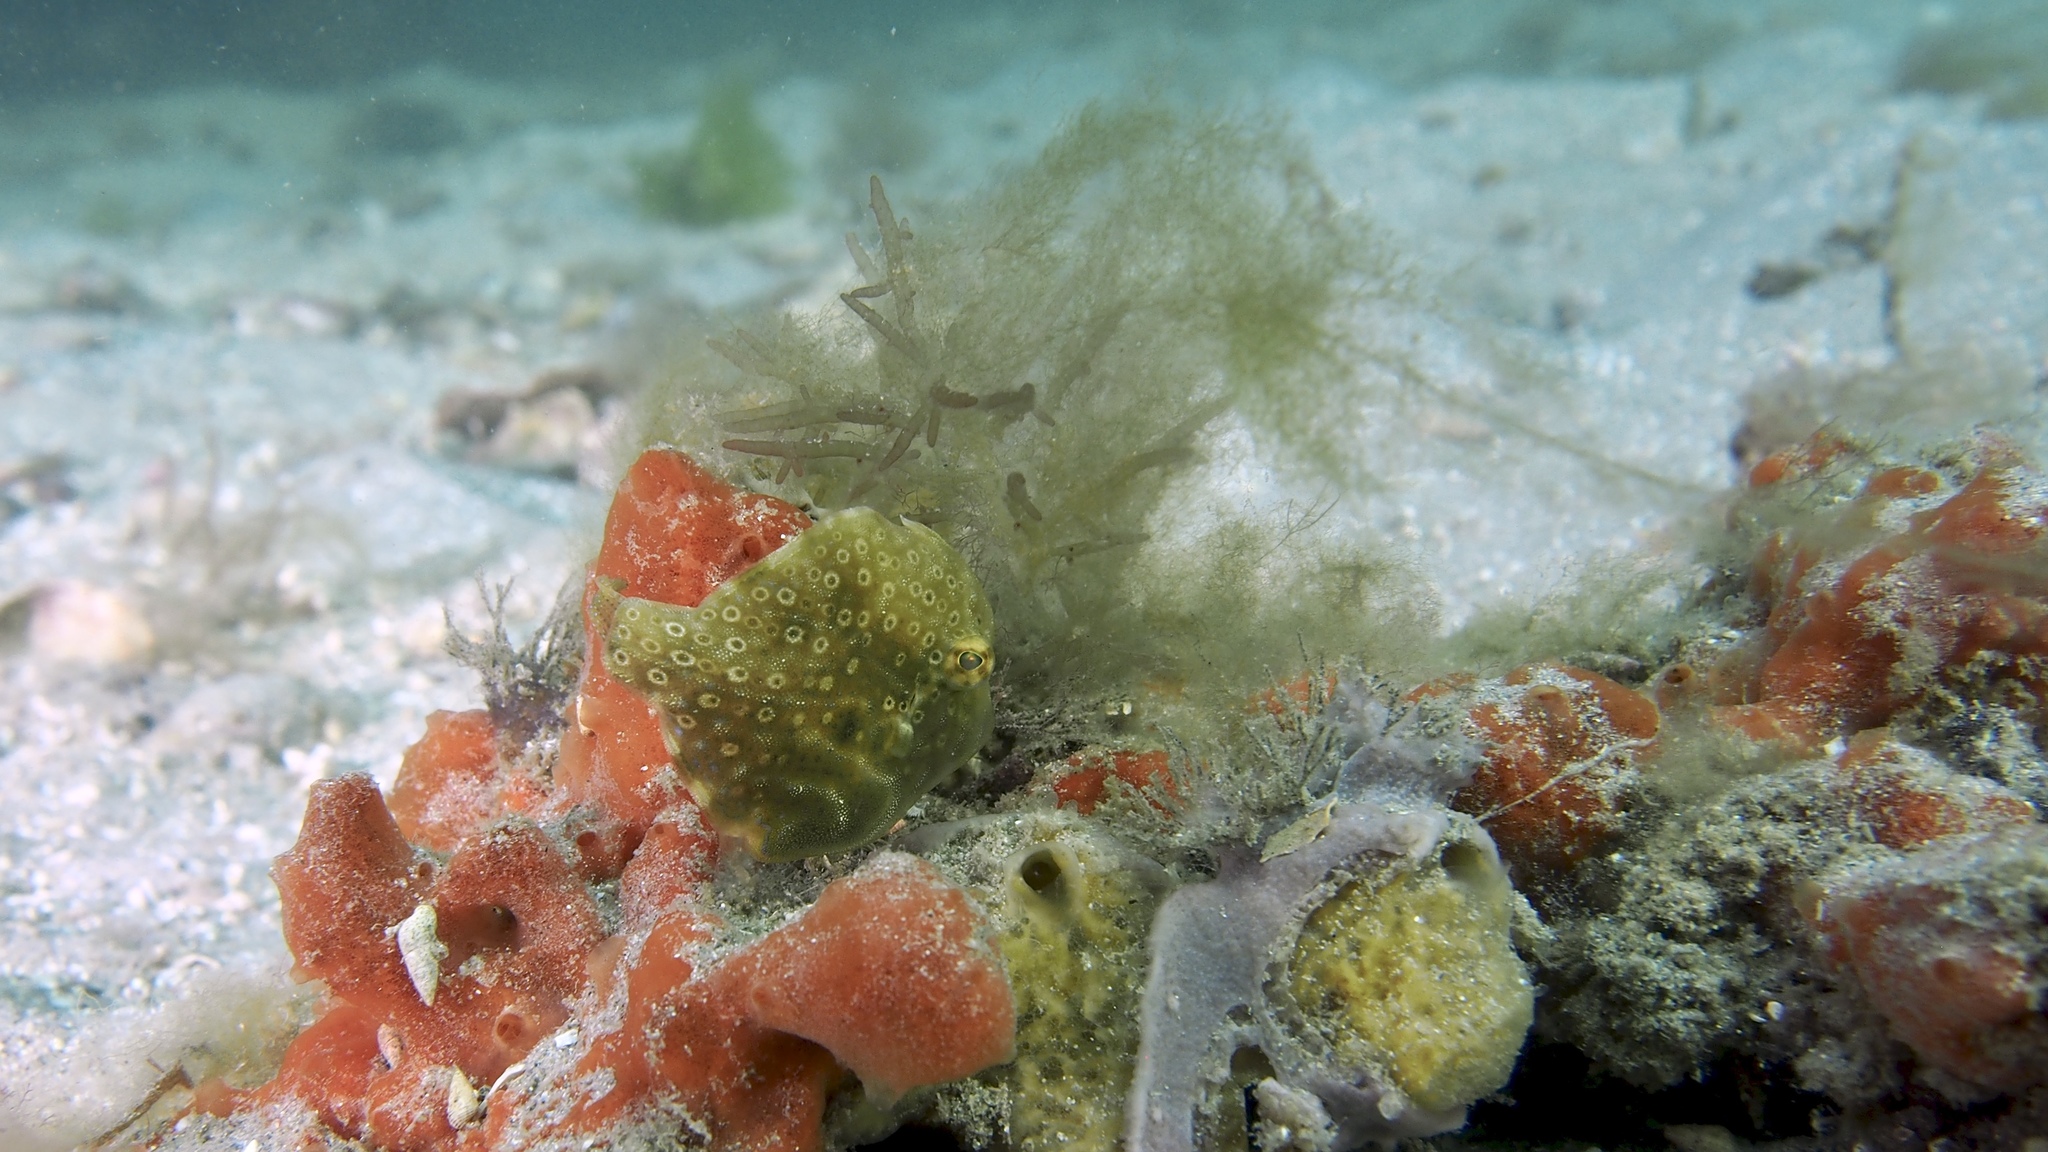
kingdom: Animalia
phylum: Chordata
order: Tetraodontiformes
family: Monacanthidae
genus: Brachaluteres
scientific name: Brachaluteres jacksonianus
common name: Pigmy leatherjacket
